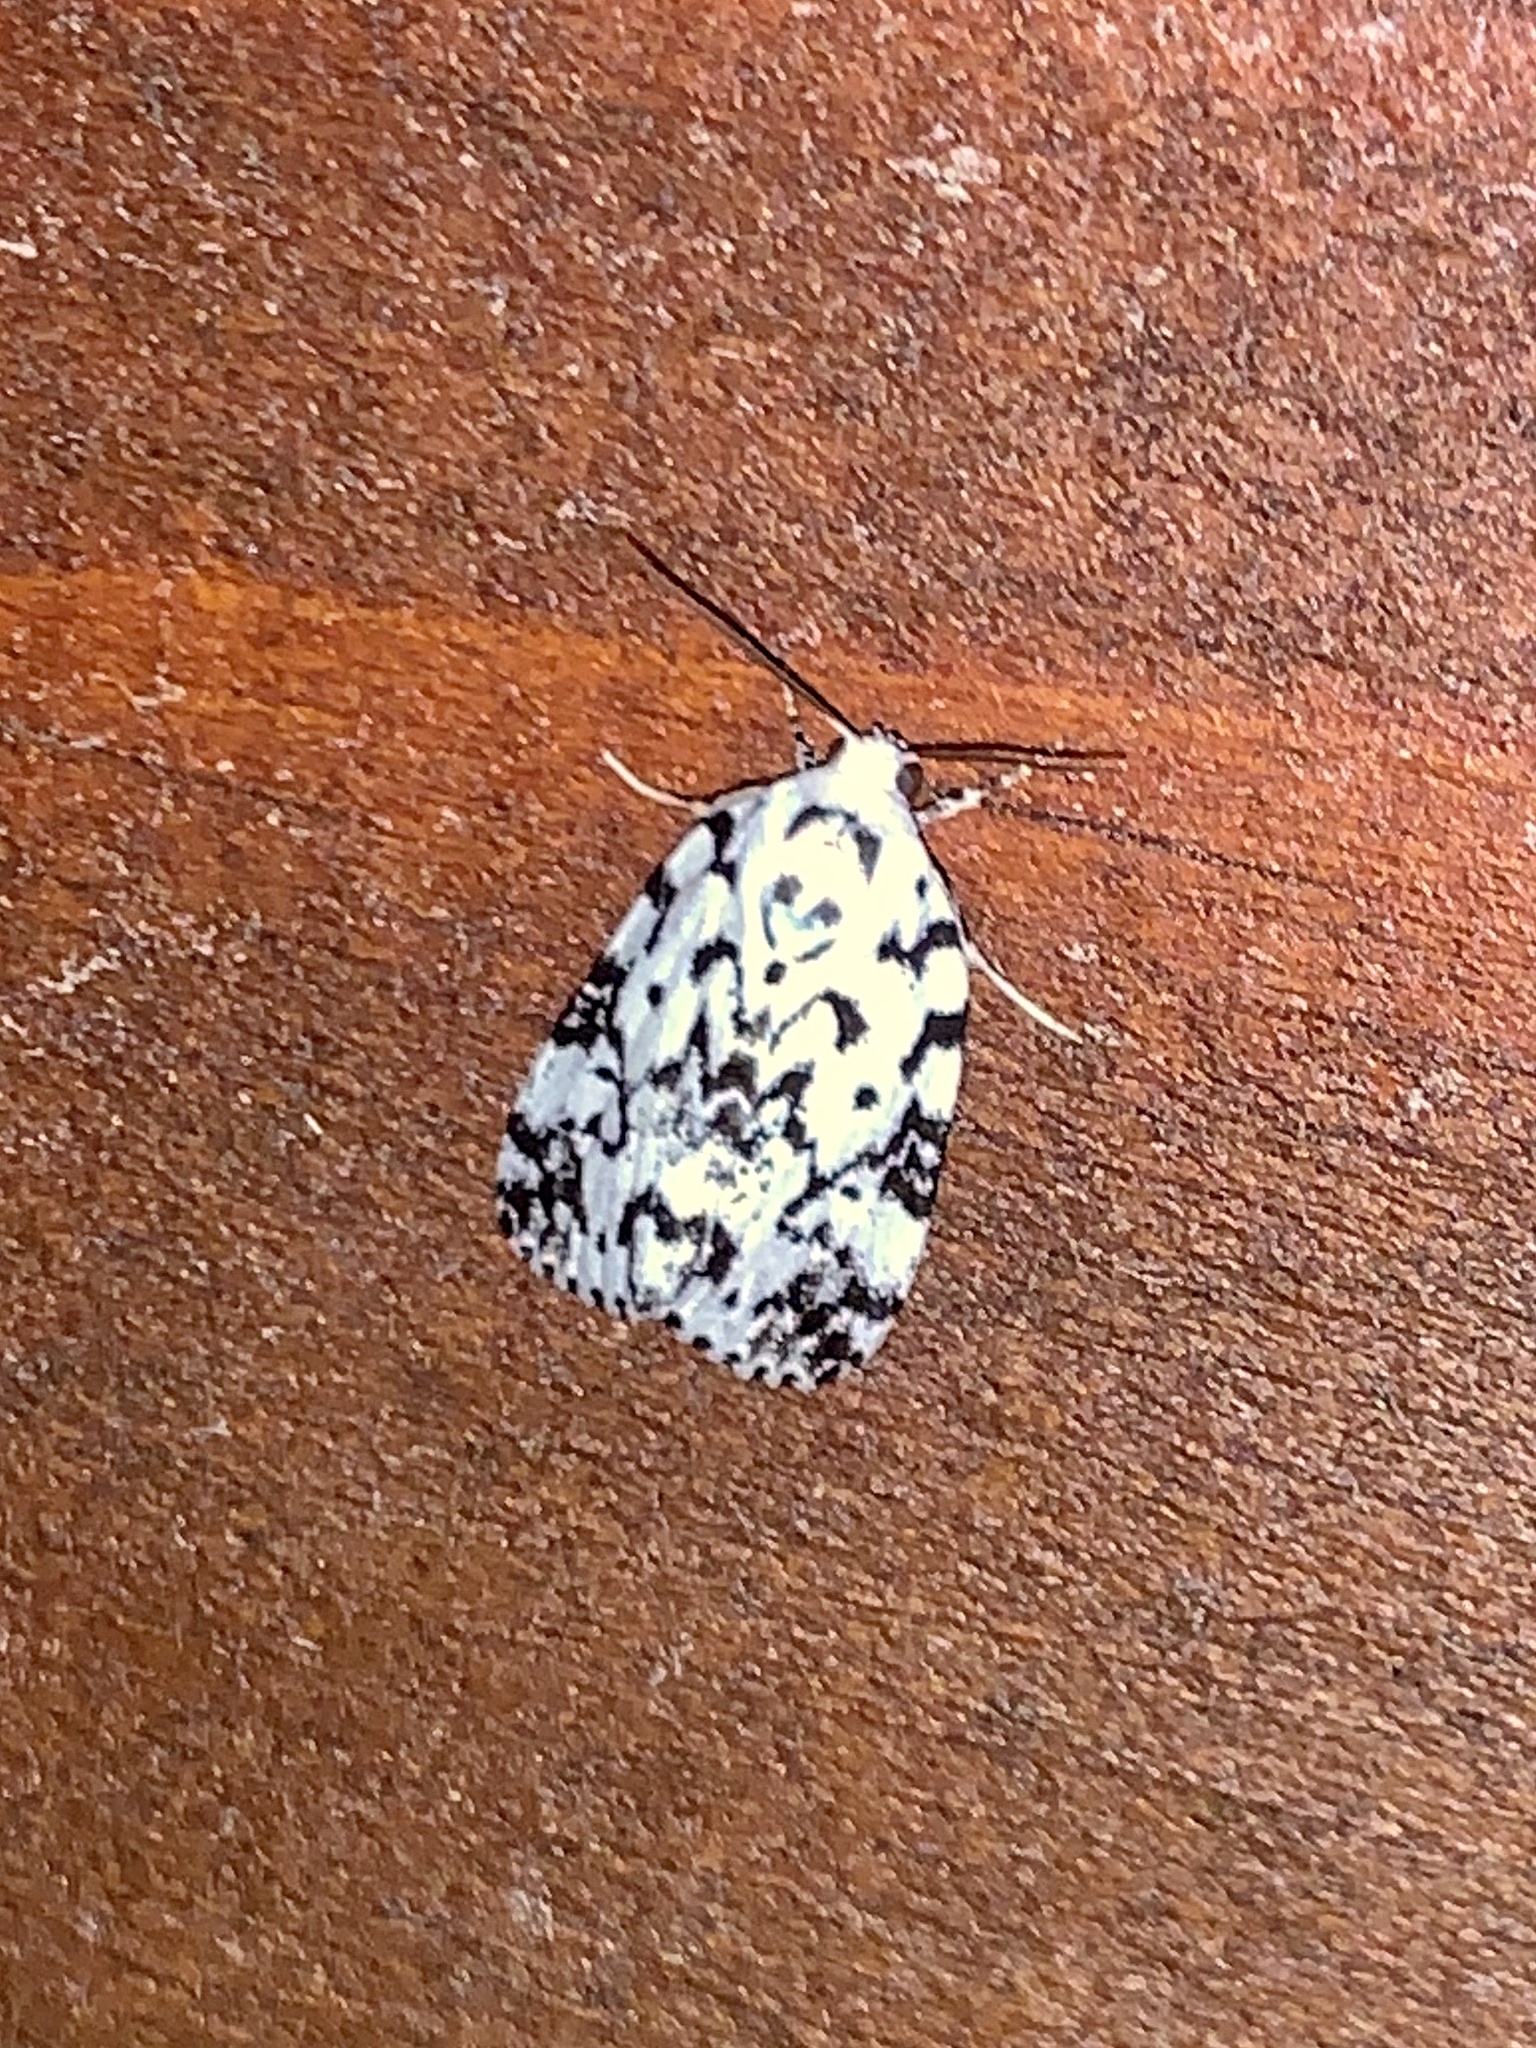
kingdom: Animalia
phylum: Arthropoda
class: Insecta
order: Lepidoptera
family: Noctuidae
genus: Polygrammate
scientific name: Polygrammate hebraeicum
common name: Hebrew moth
